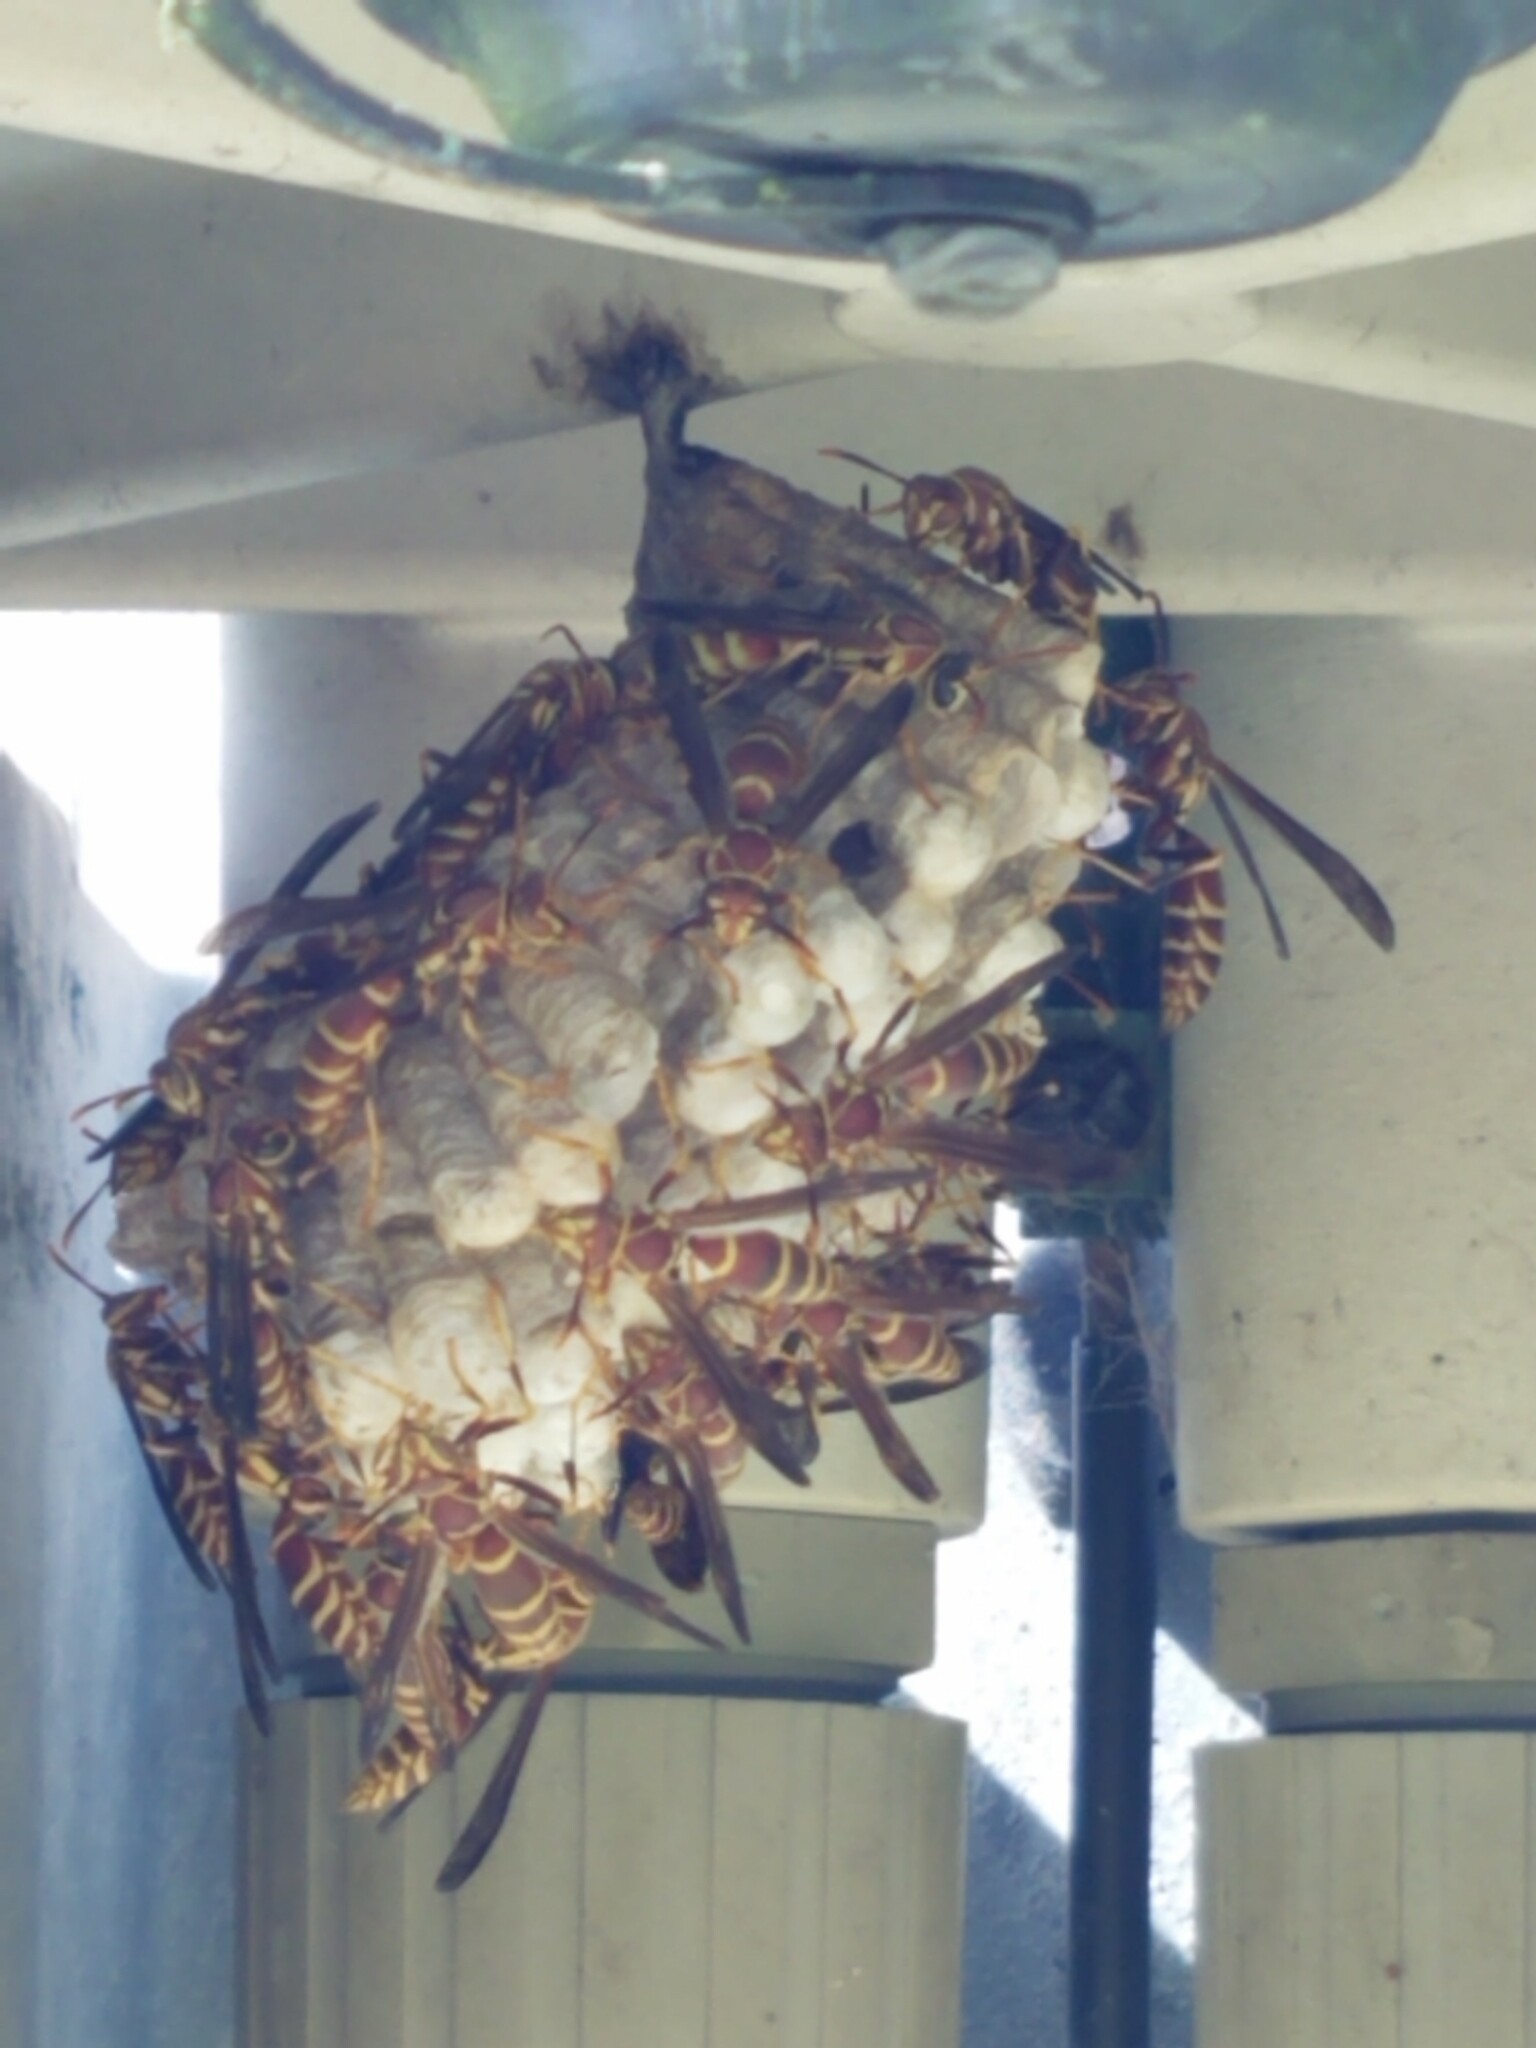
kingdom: Animalia
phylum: Arthropoda
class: Insecta
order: Hymenoptera
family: Eumenidae
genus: Polistes
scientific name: Polistes exclamans
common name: Paper wasp
